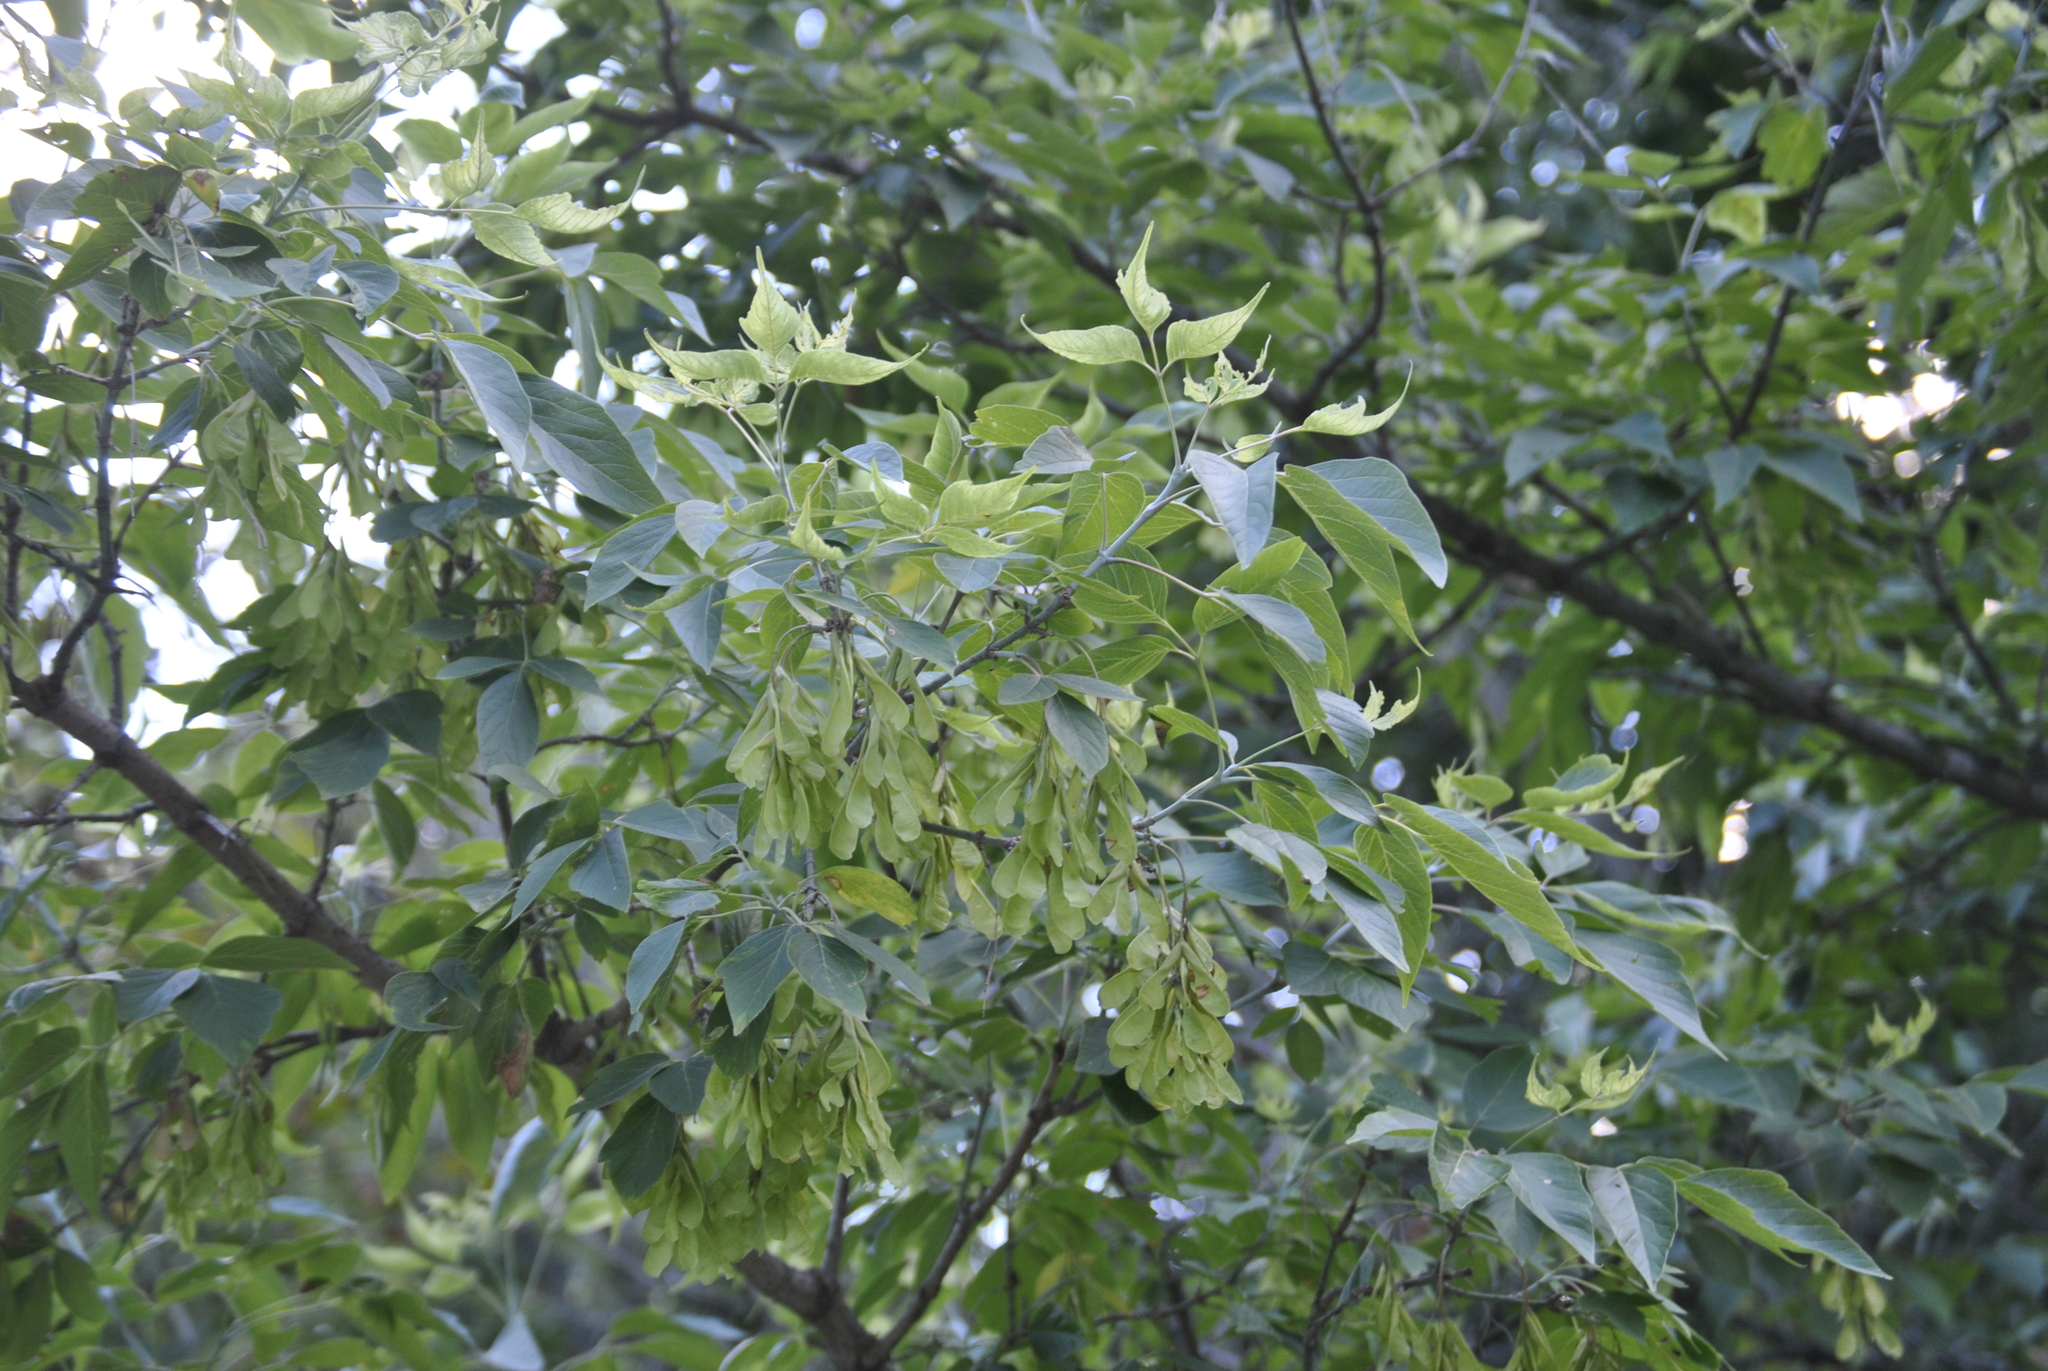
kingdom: Plantae
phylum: Tracheophyta
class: Magnoliopsida
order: Sapindales
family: Sapindaceae
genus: Acer
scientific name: Acer negundo
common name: Ashleaf maple
